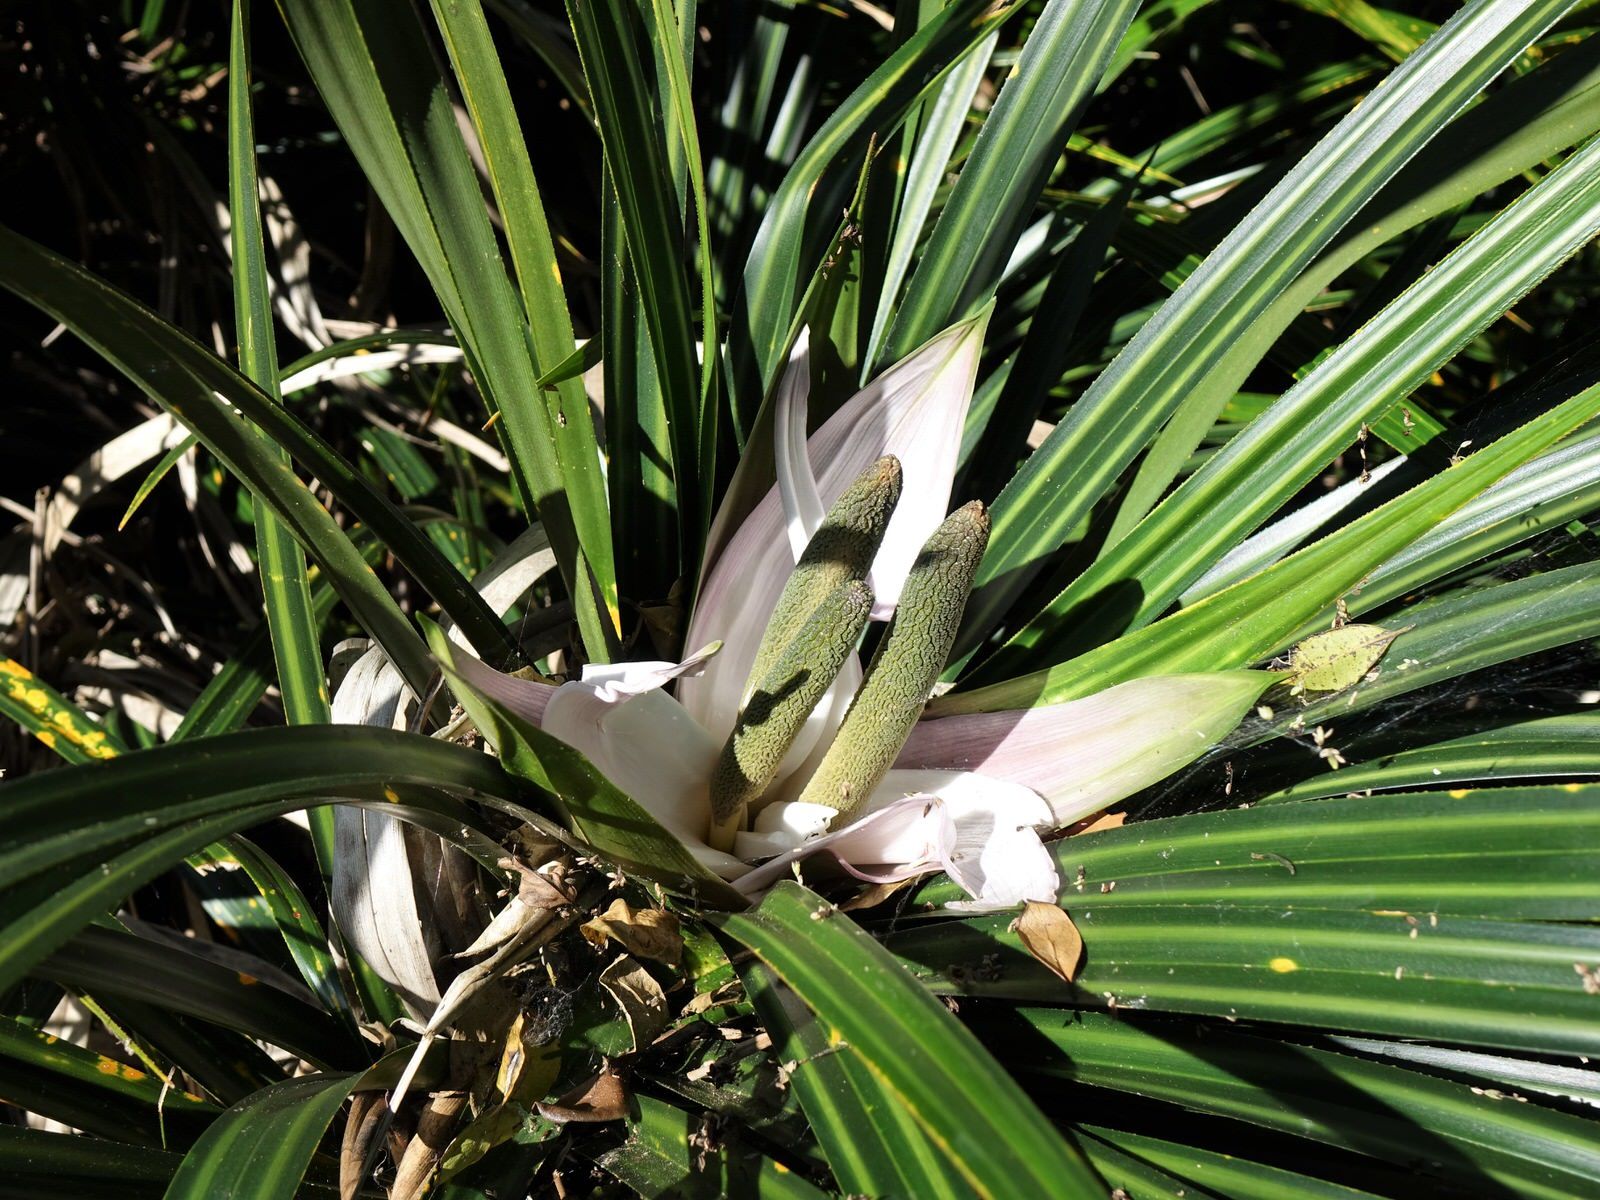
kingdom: Plantae
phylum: Tracheophyta
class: Liliopsida
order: Pandanales
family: Pandanaceae
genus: Freycinetia
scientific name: Freycinetia banksii
